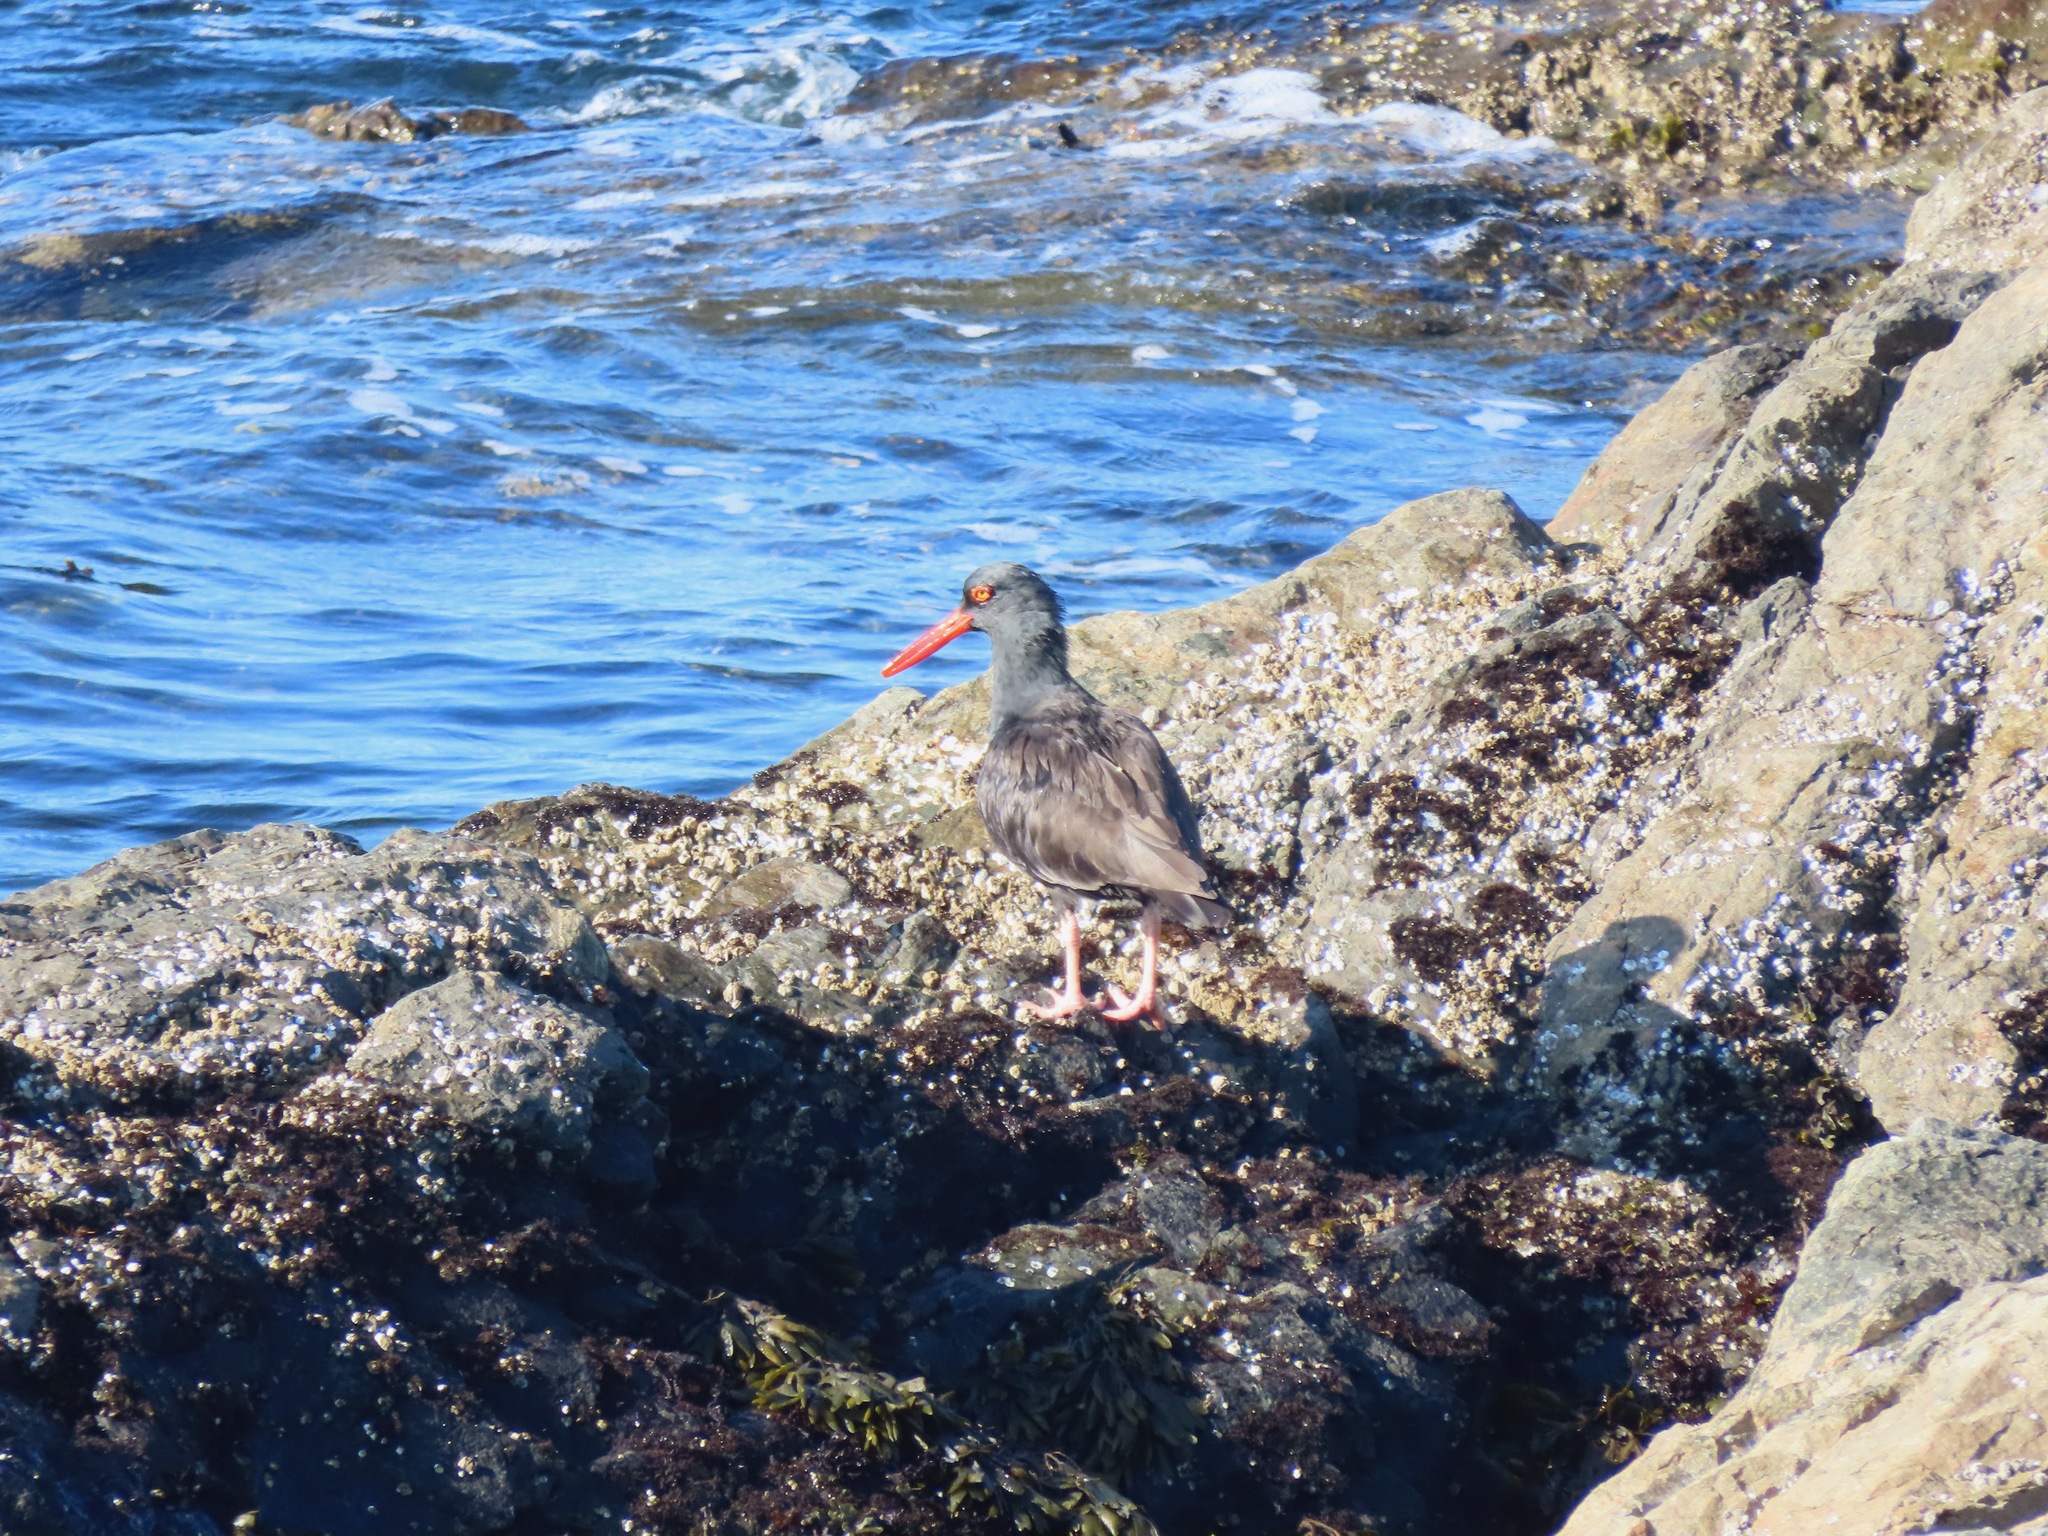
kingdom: Animalia
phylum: Chordata
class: Aves
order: Charadriiformes
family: Haematopodidae
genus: Haematopus
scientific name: Haematopus bachmani
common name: Black oystercatcher
